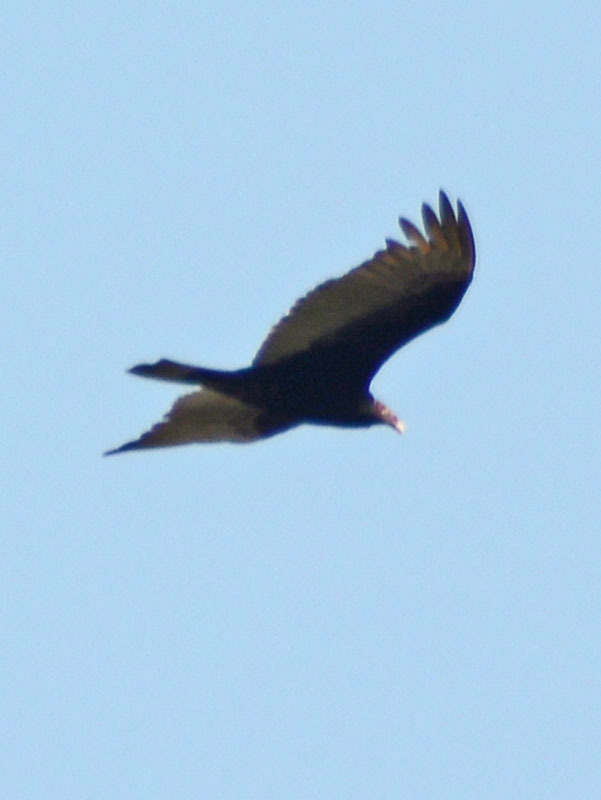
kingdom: Animalia
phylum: Chordata
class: Aves
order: Accipitriformes
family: Cathartidae
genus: Cathartes
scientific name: Cathartes aura
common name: Turkey vulture
